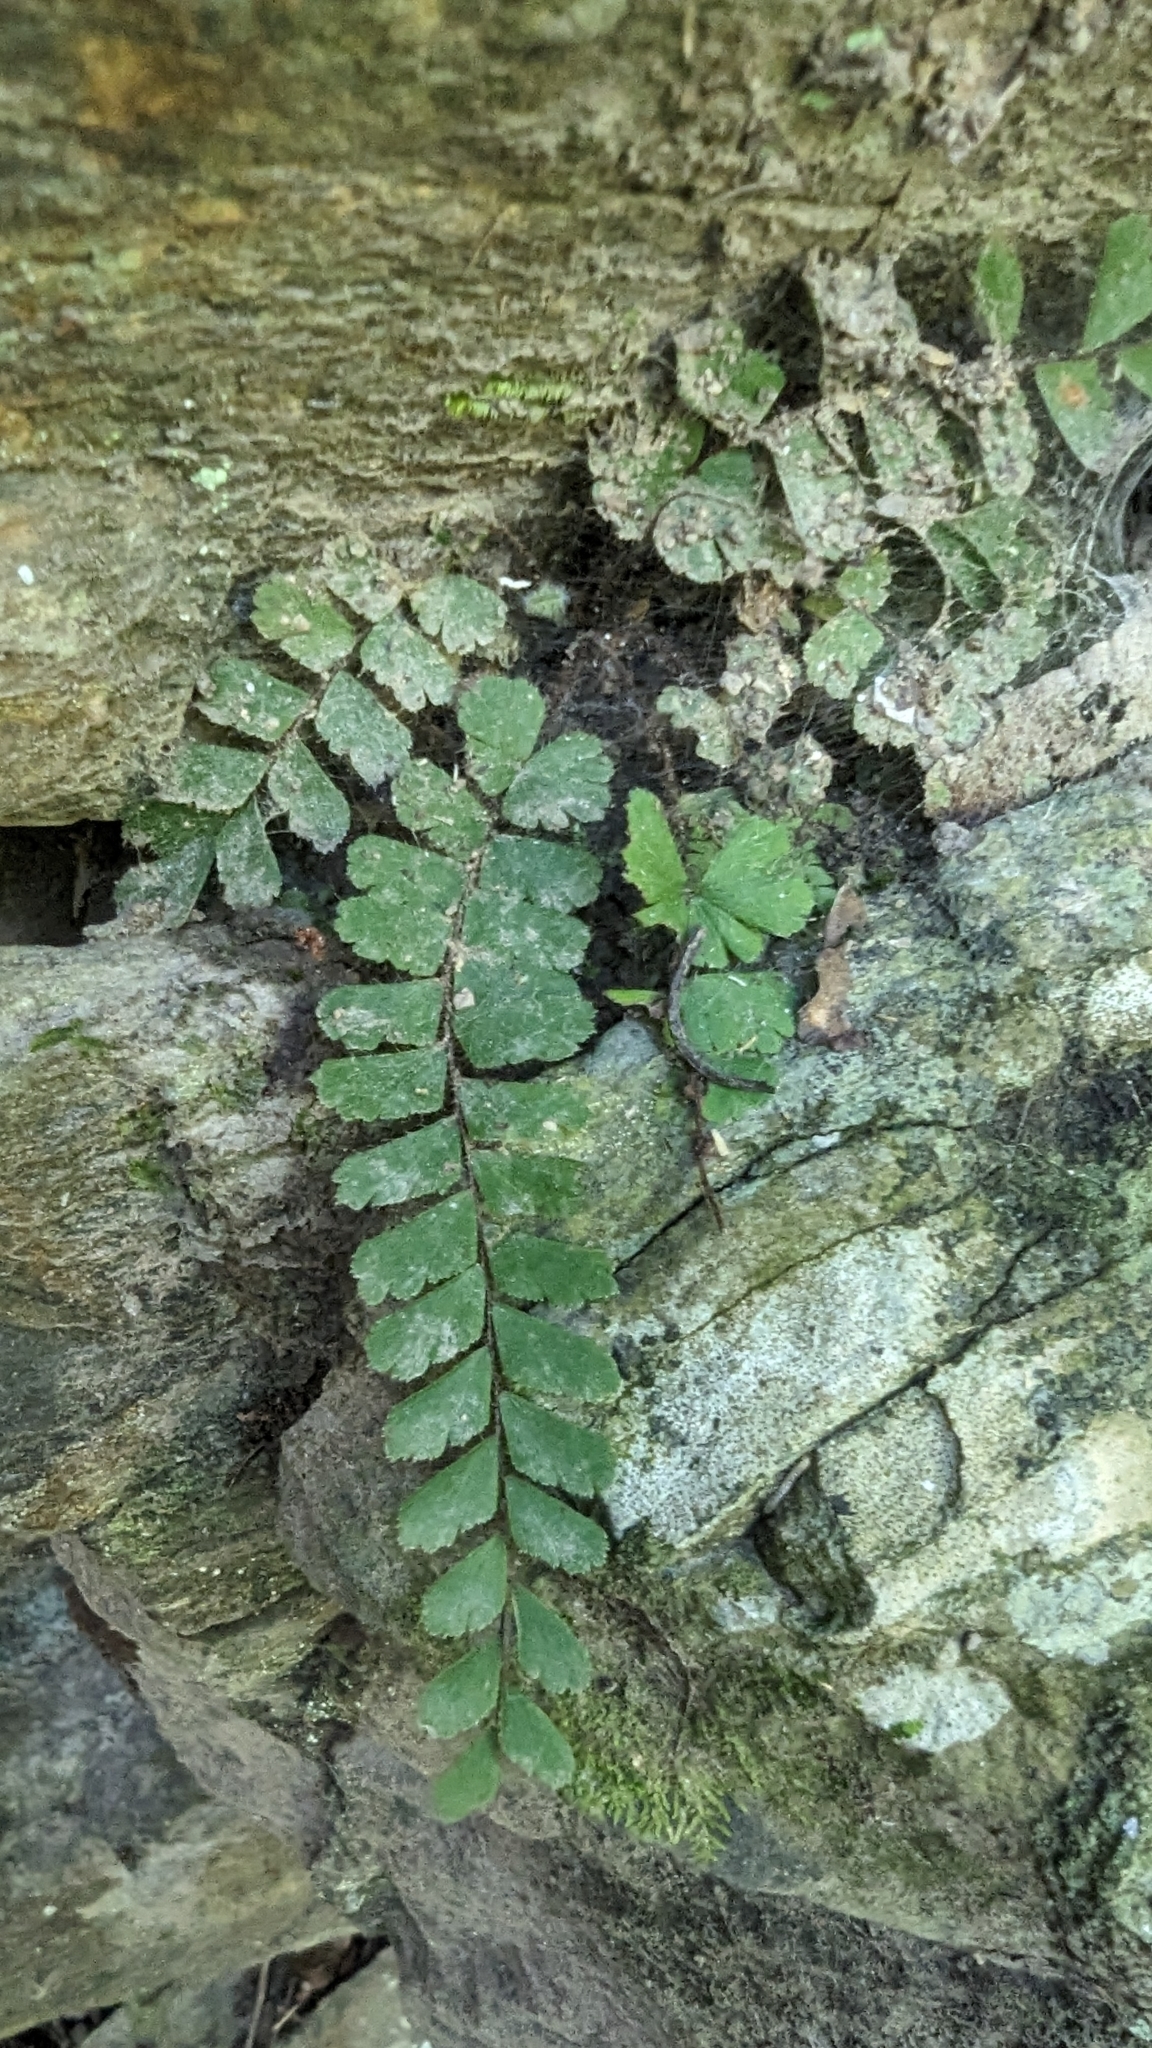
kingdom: Plantae
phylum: Tracheophyta
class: Polypodiopsida
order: Polypodiales
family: Pteridaceae
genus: Adiantum
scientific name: Adiantum ciliatum
